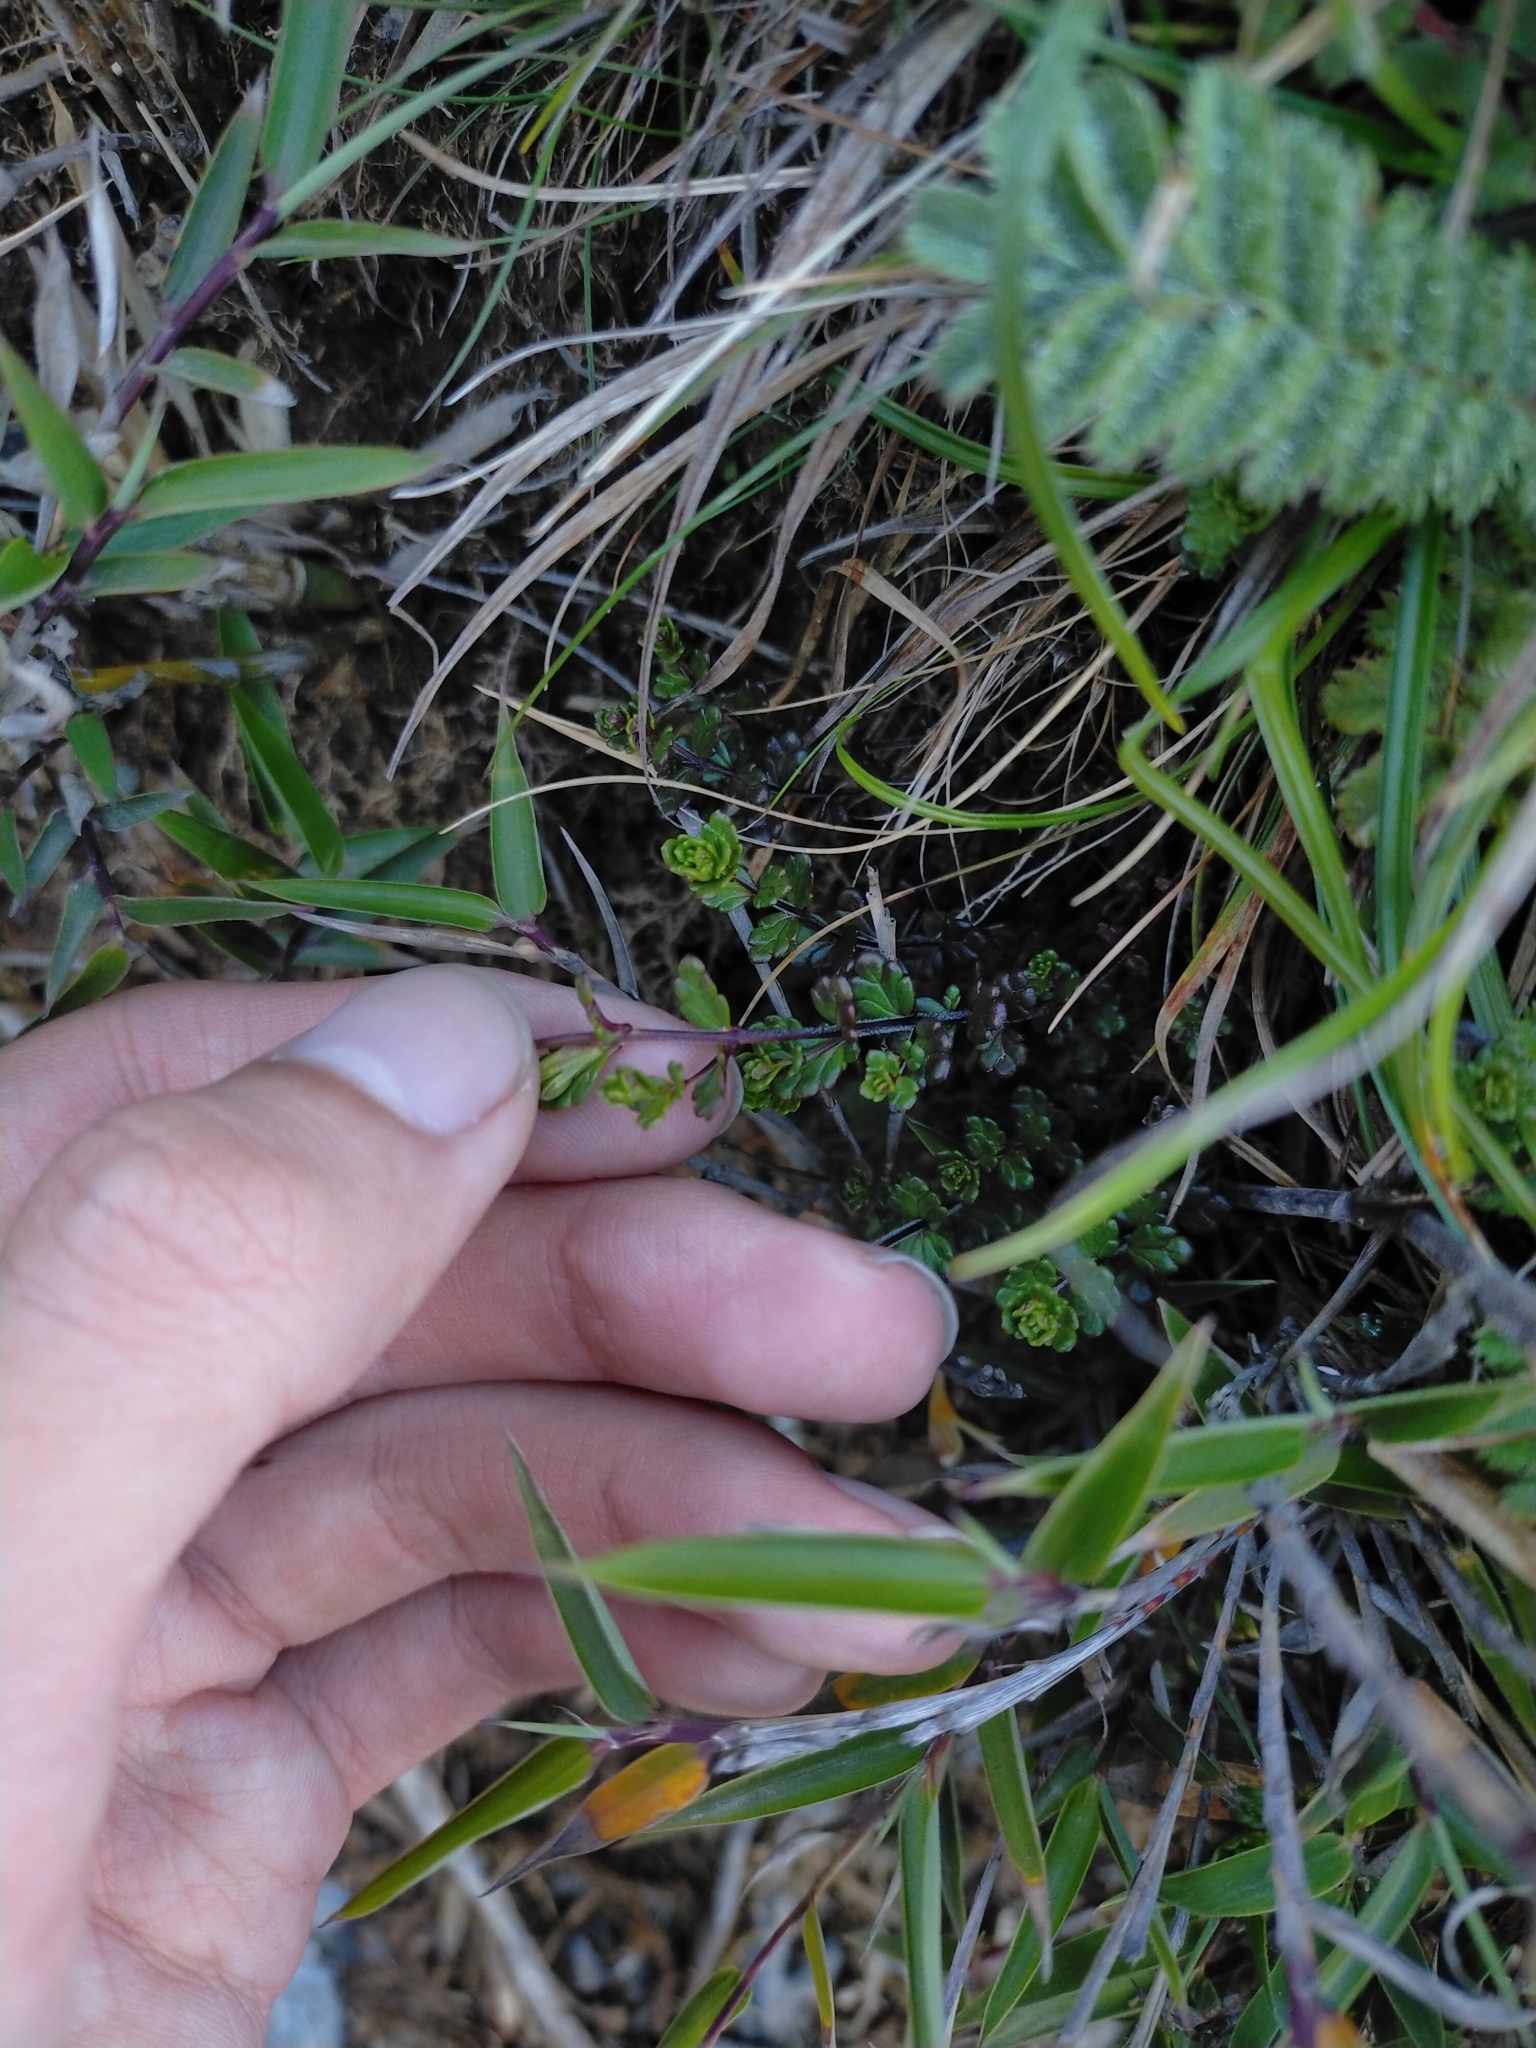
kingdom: Plantae
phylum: Tracheophyta
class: Magnoliopsida
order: Lamiales
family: Orobanchaceae
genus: Euphrasia
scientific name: Euphrasia transmorrisonensis
